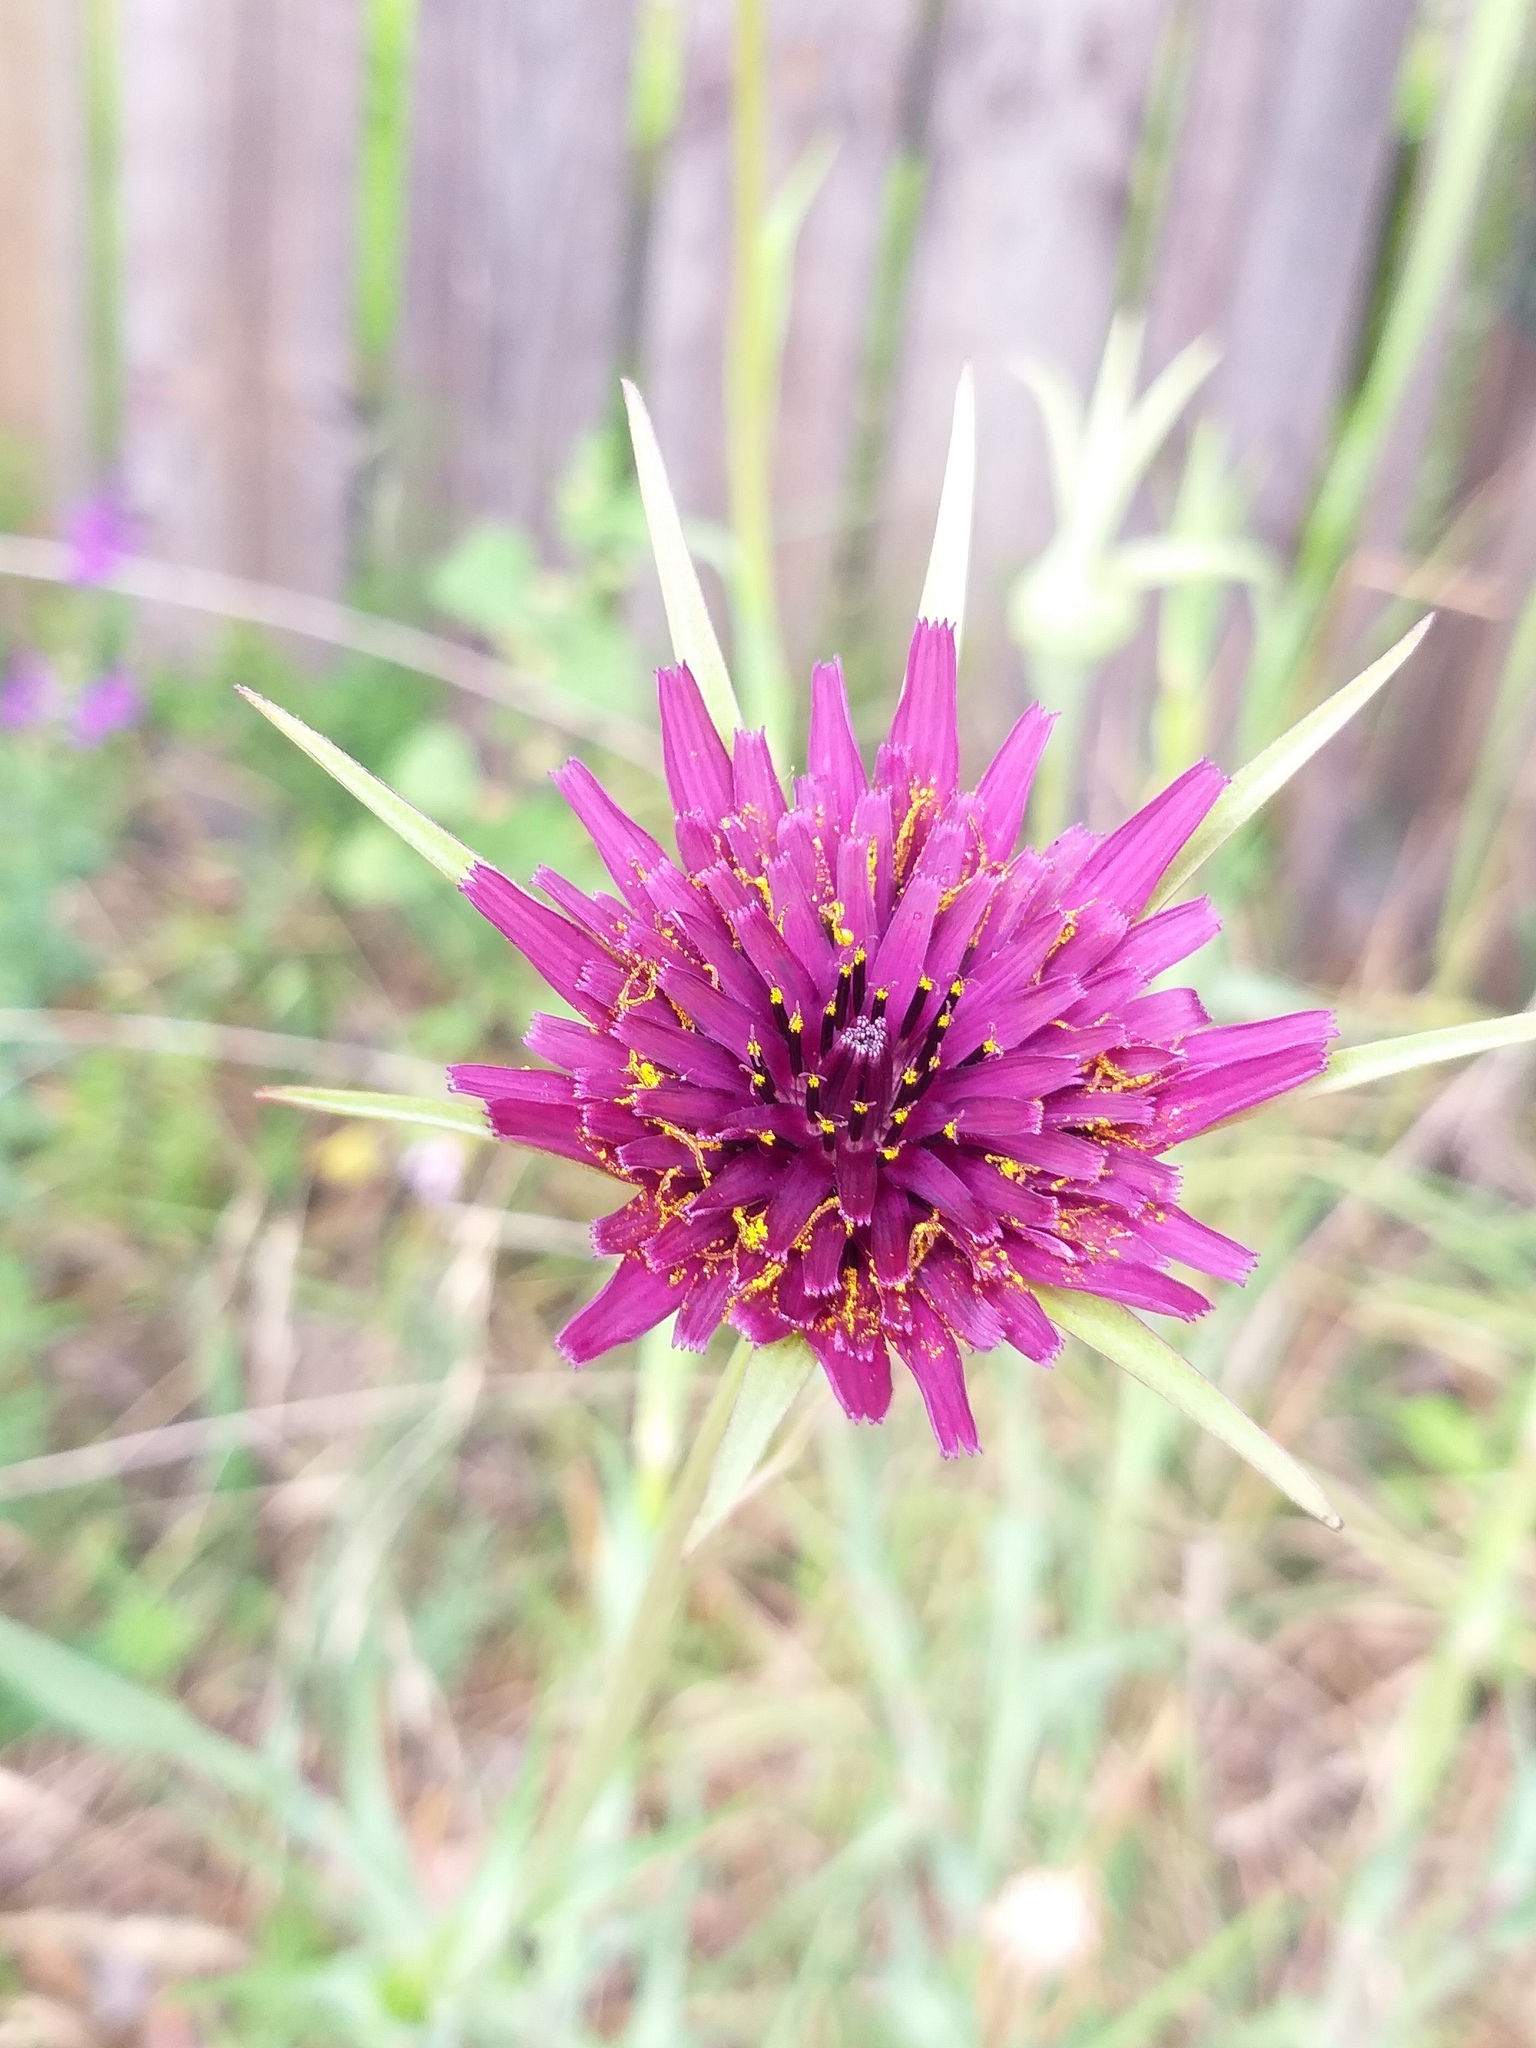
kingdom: Plantae
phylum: Tracheophyta
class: Magnoliopsida
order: Asterales
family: Asteraceae
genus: Tragopogon
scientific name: Tragopogon porrifolius
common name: Salsify
